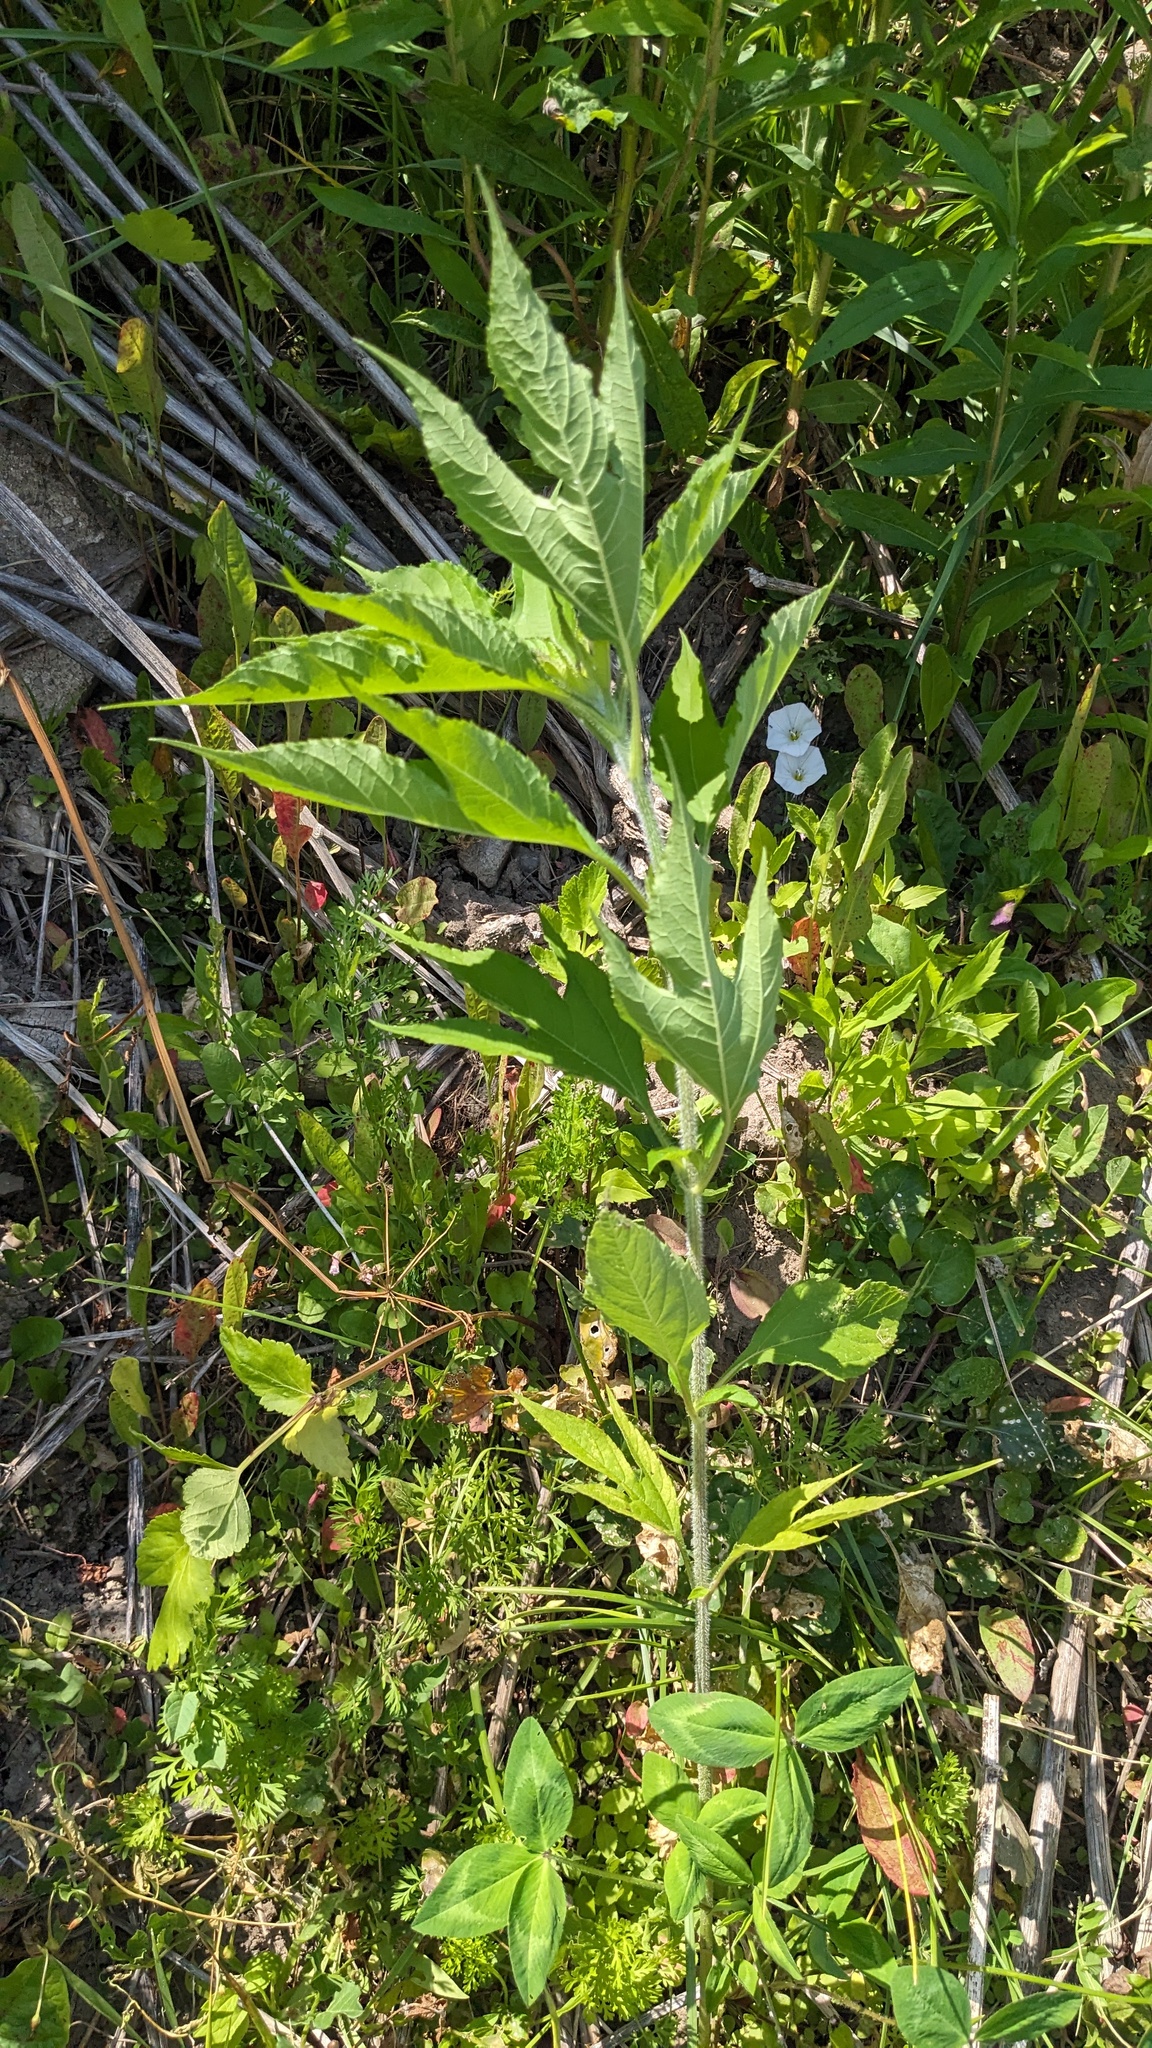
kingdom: Plantae
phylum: Tracheophyta
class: Magnoliopsida
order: Asterales
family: Asteraceae
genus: Ambrosia
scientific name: Ambrosia trifida
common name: Giant ragweed
